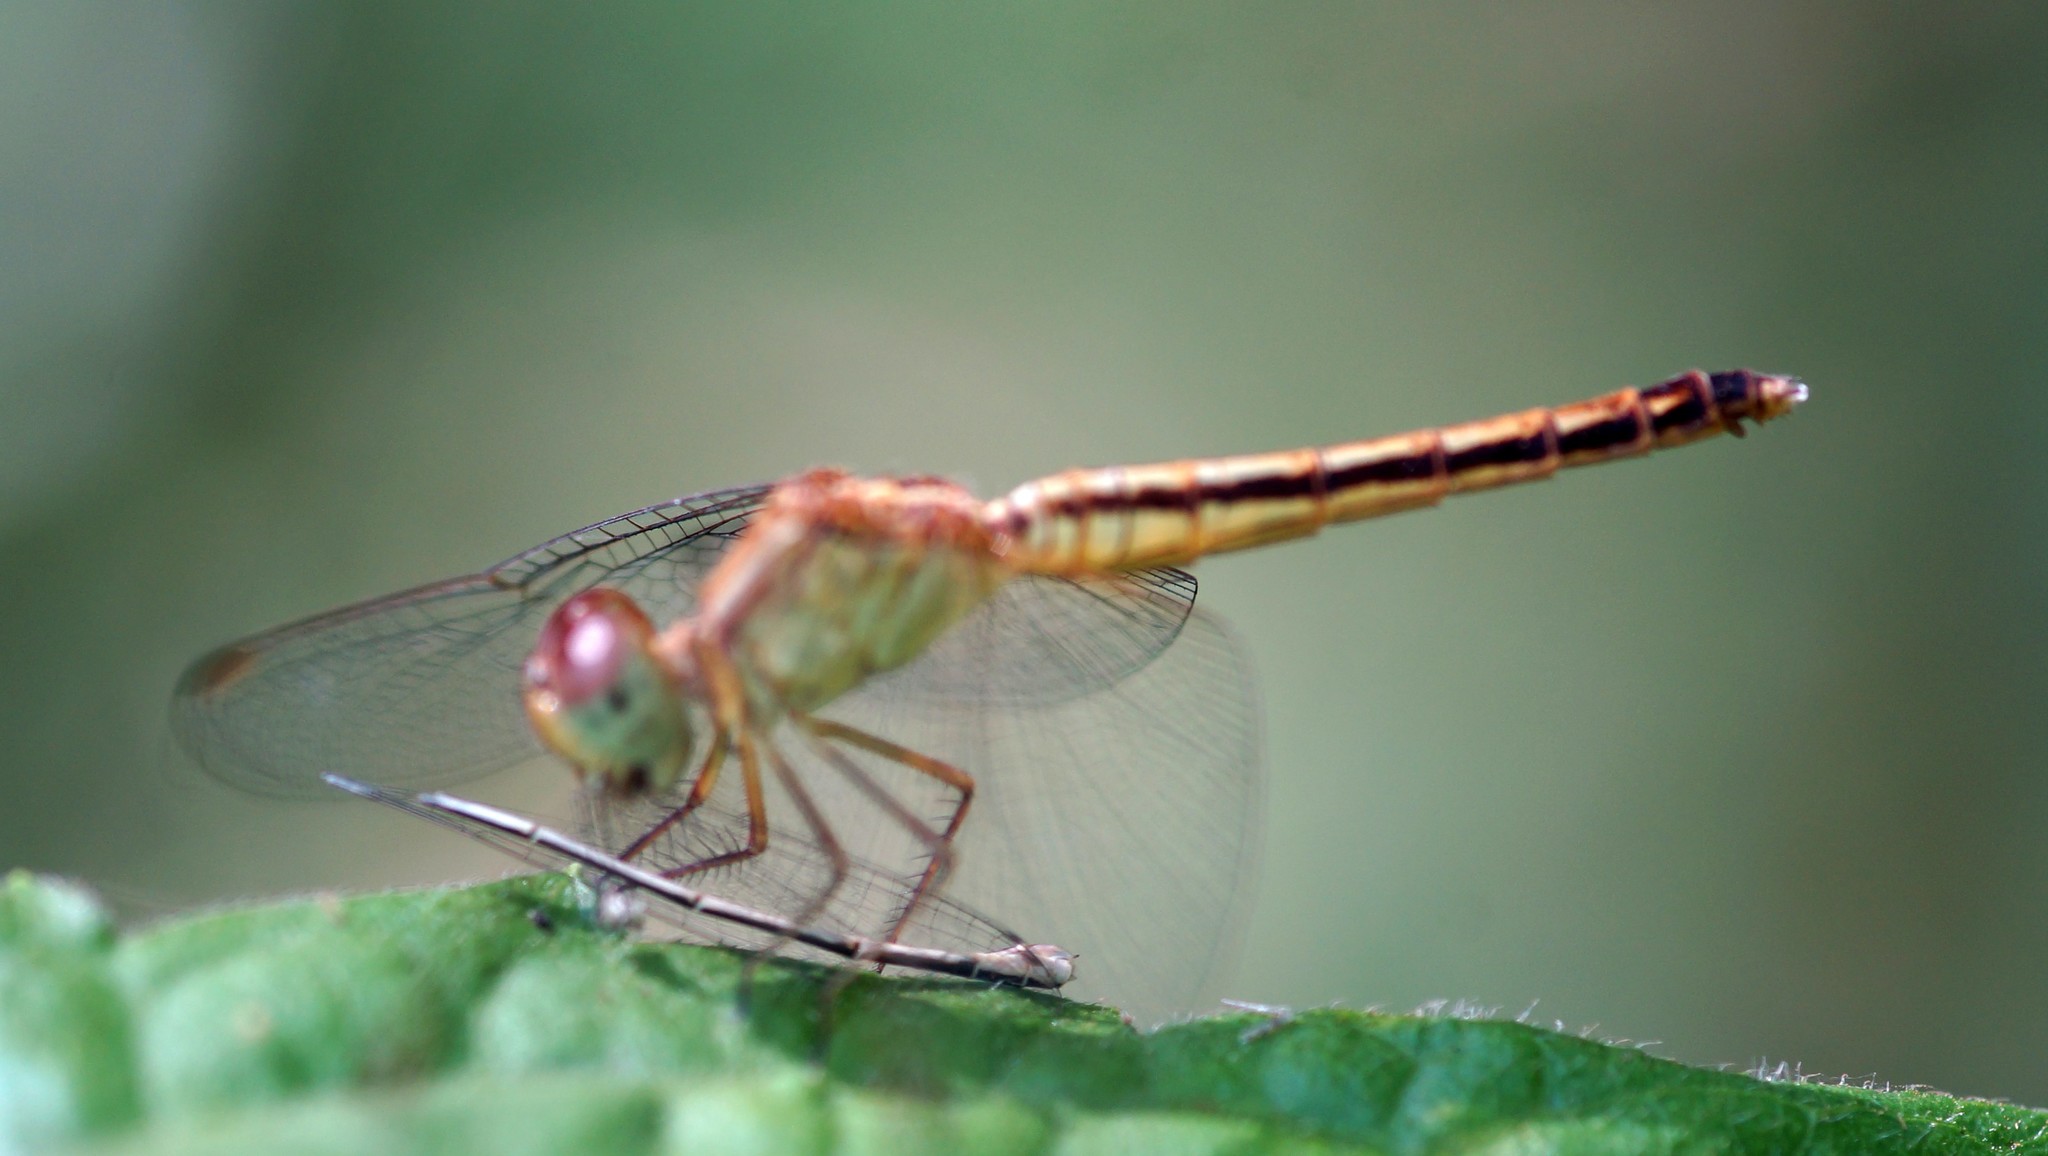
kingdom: Animalia
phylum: Arthropoda
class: Insecta
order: Odonata
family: Libellulidae
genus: Neurothemis
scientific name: Neurothemis intermedia
